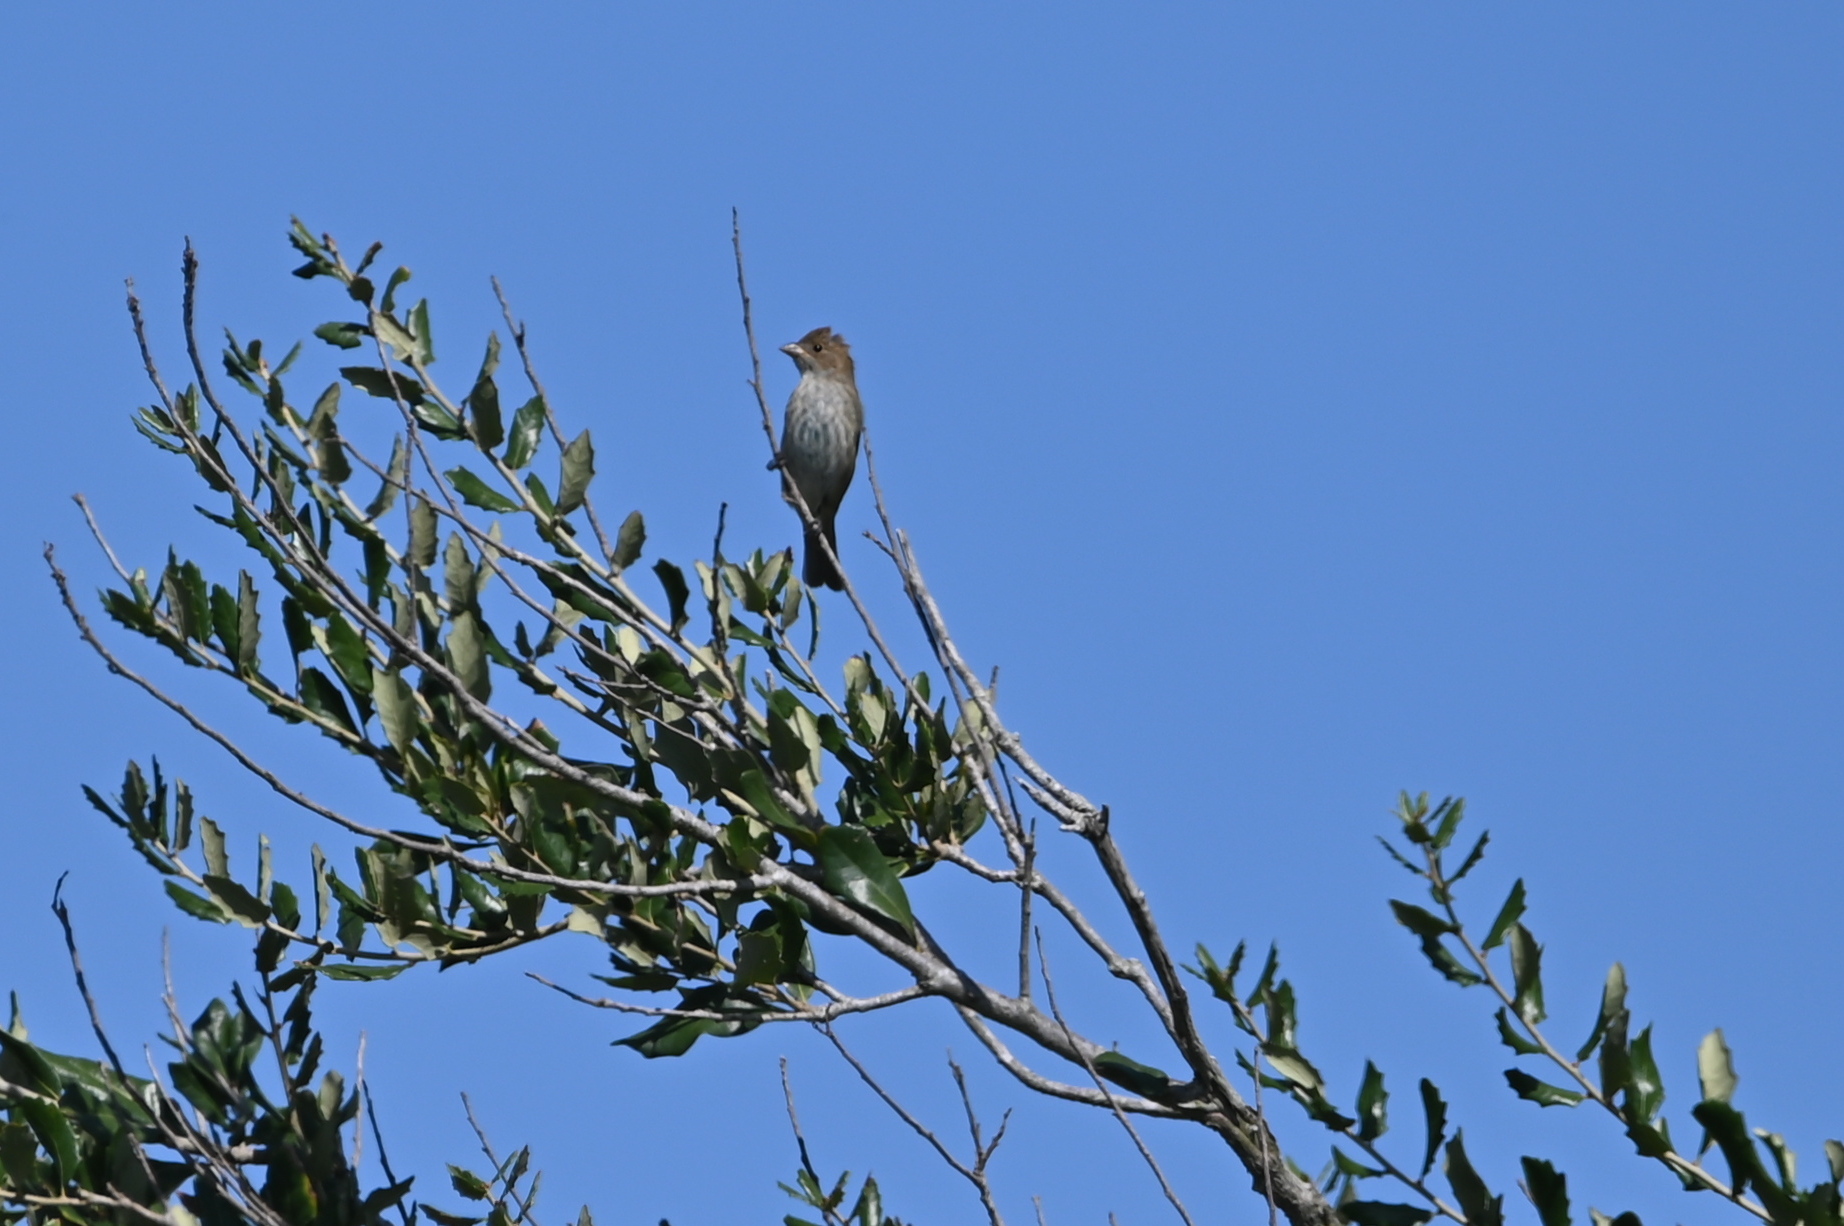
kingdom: Animalia
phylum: Chordata
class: Aves
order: Passeriformes
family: Cardinalidae
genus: Passerina
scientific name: Passerina cyanea
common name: Indigo bunting
